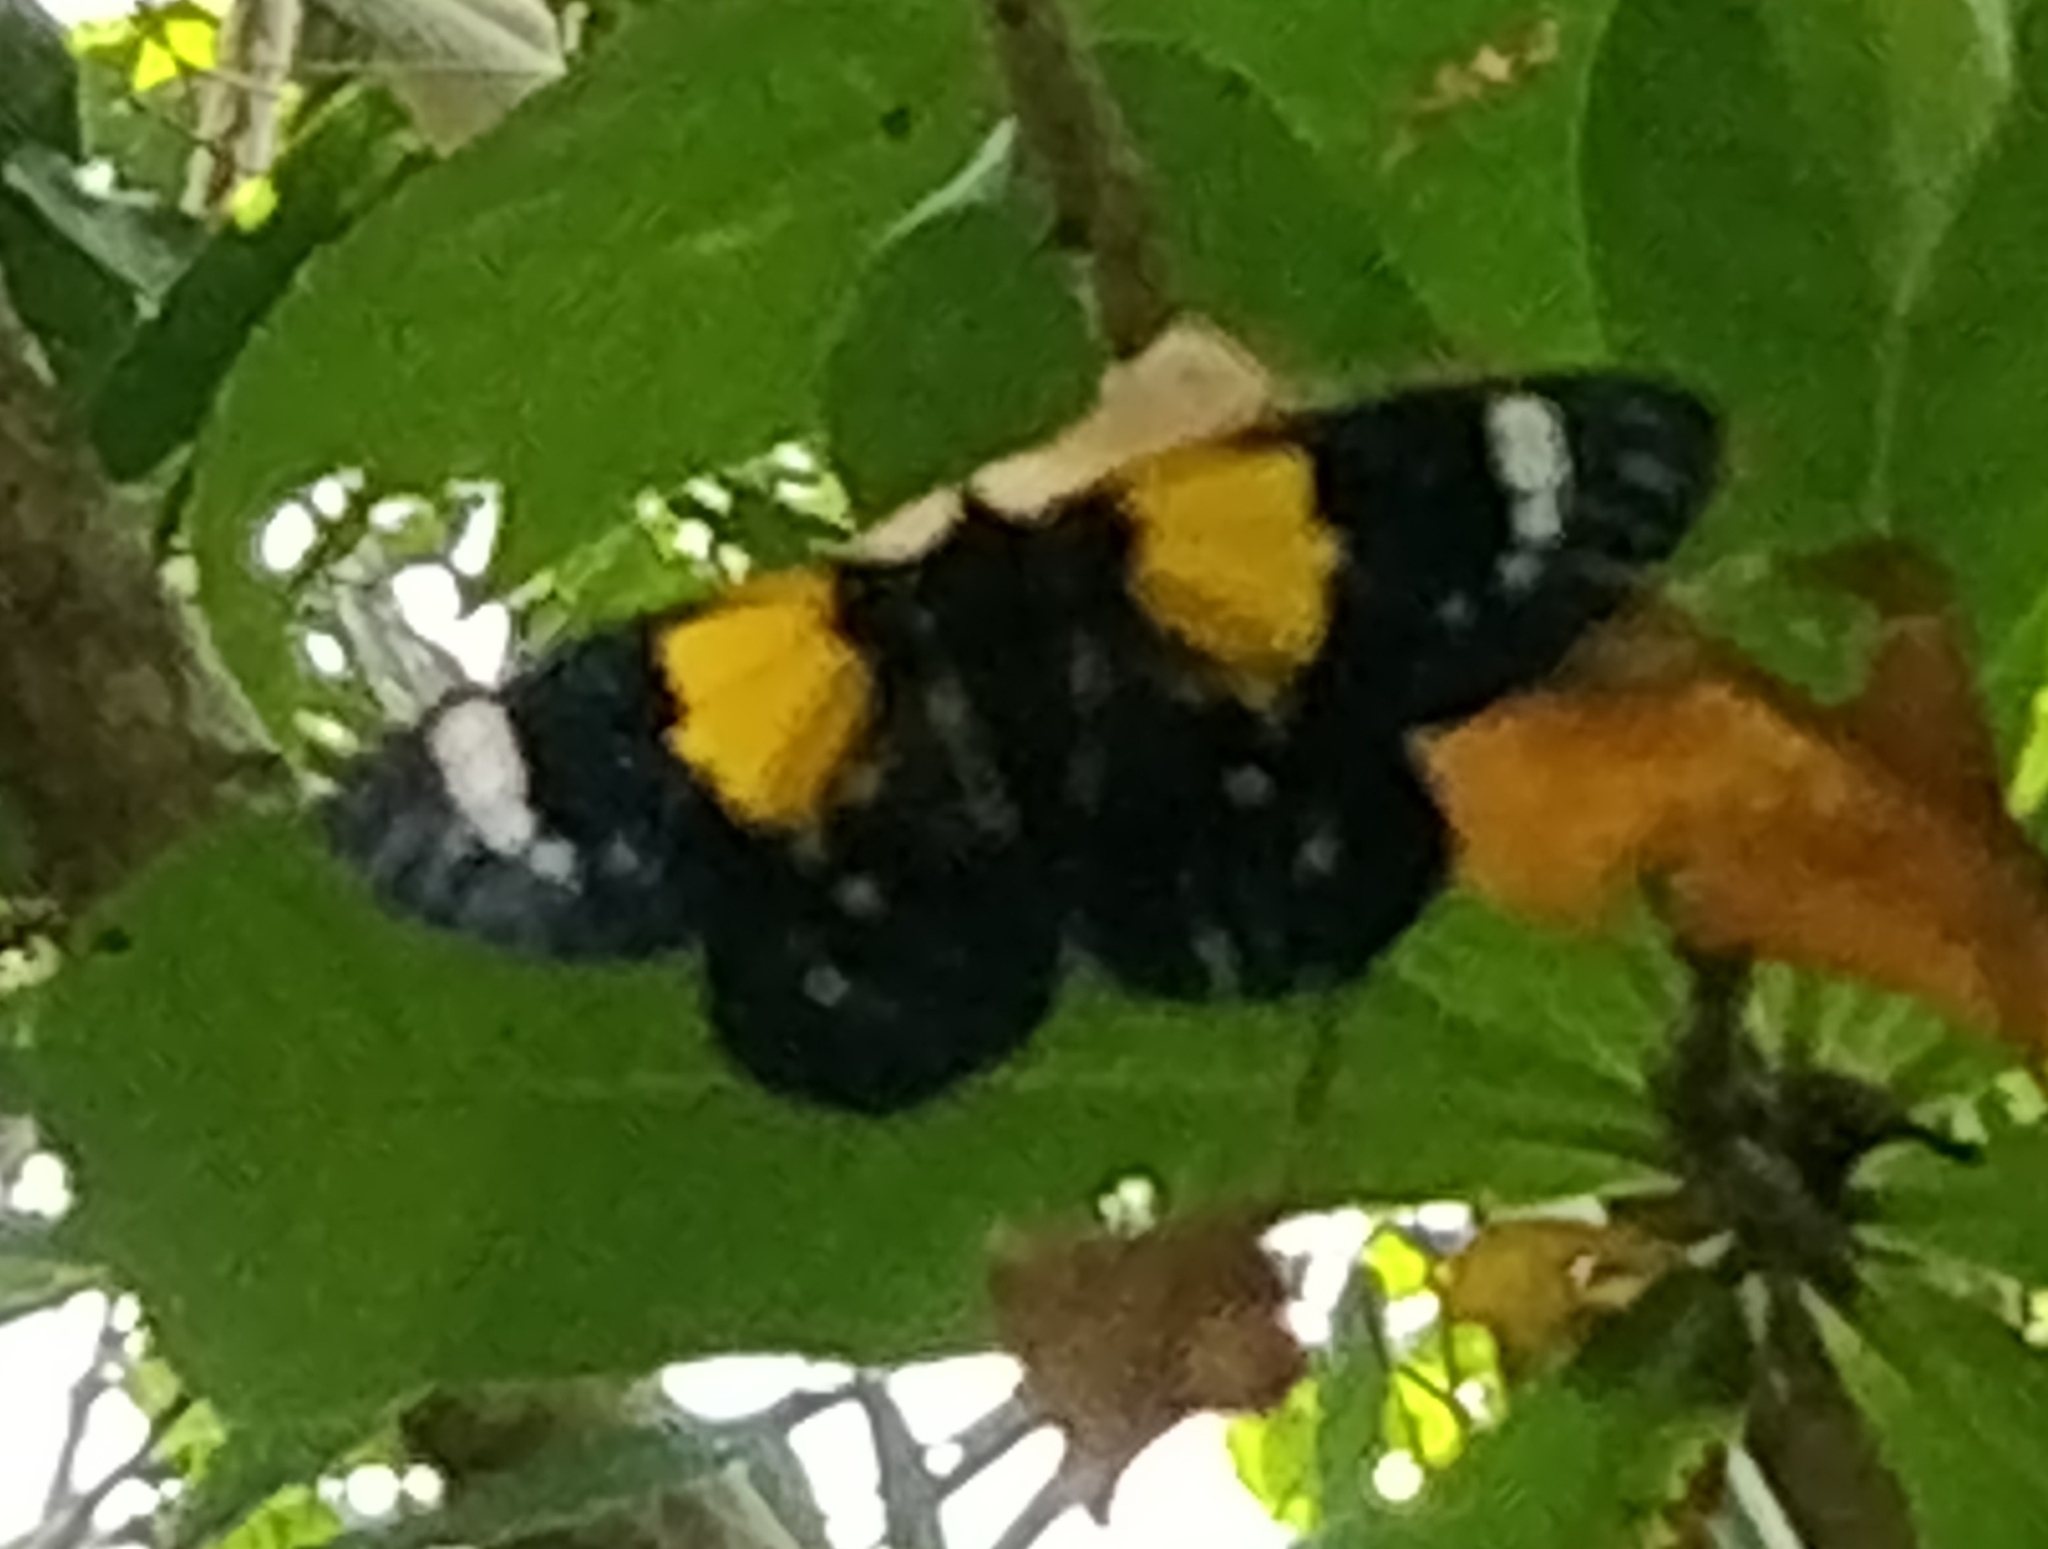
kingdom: Animalia
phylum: Arthropoda
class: Insecta
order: Lepidoptera
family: Geometridae
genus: Dysphania
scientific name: Dysphania andamana
